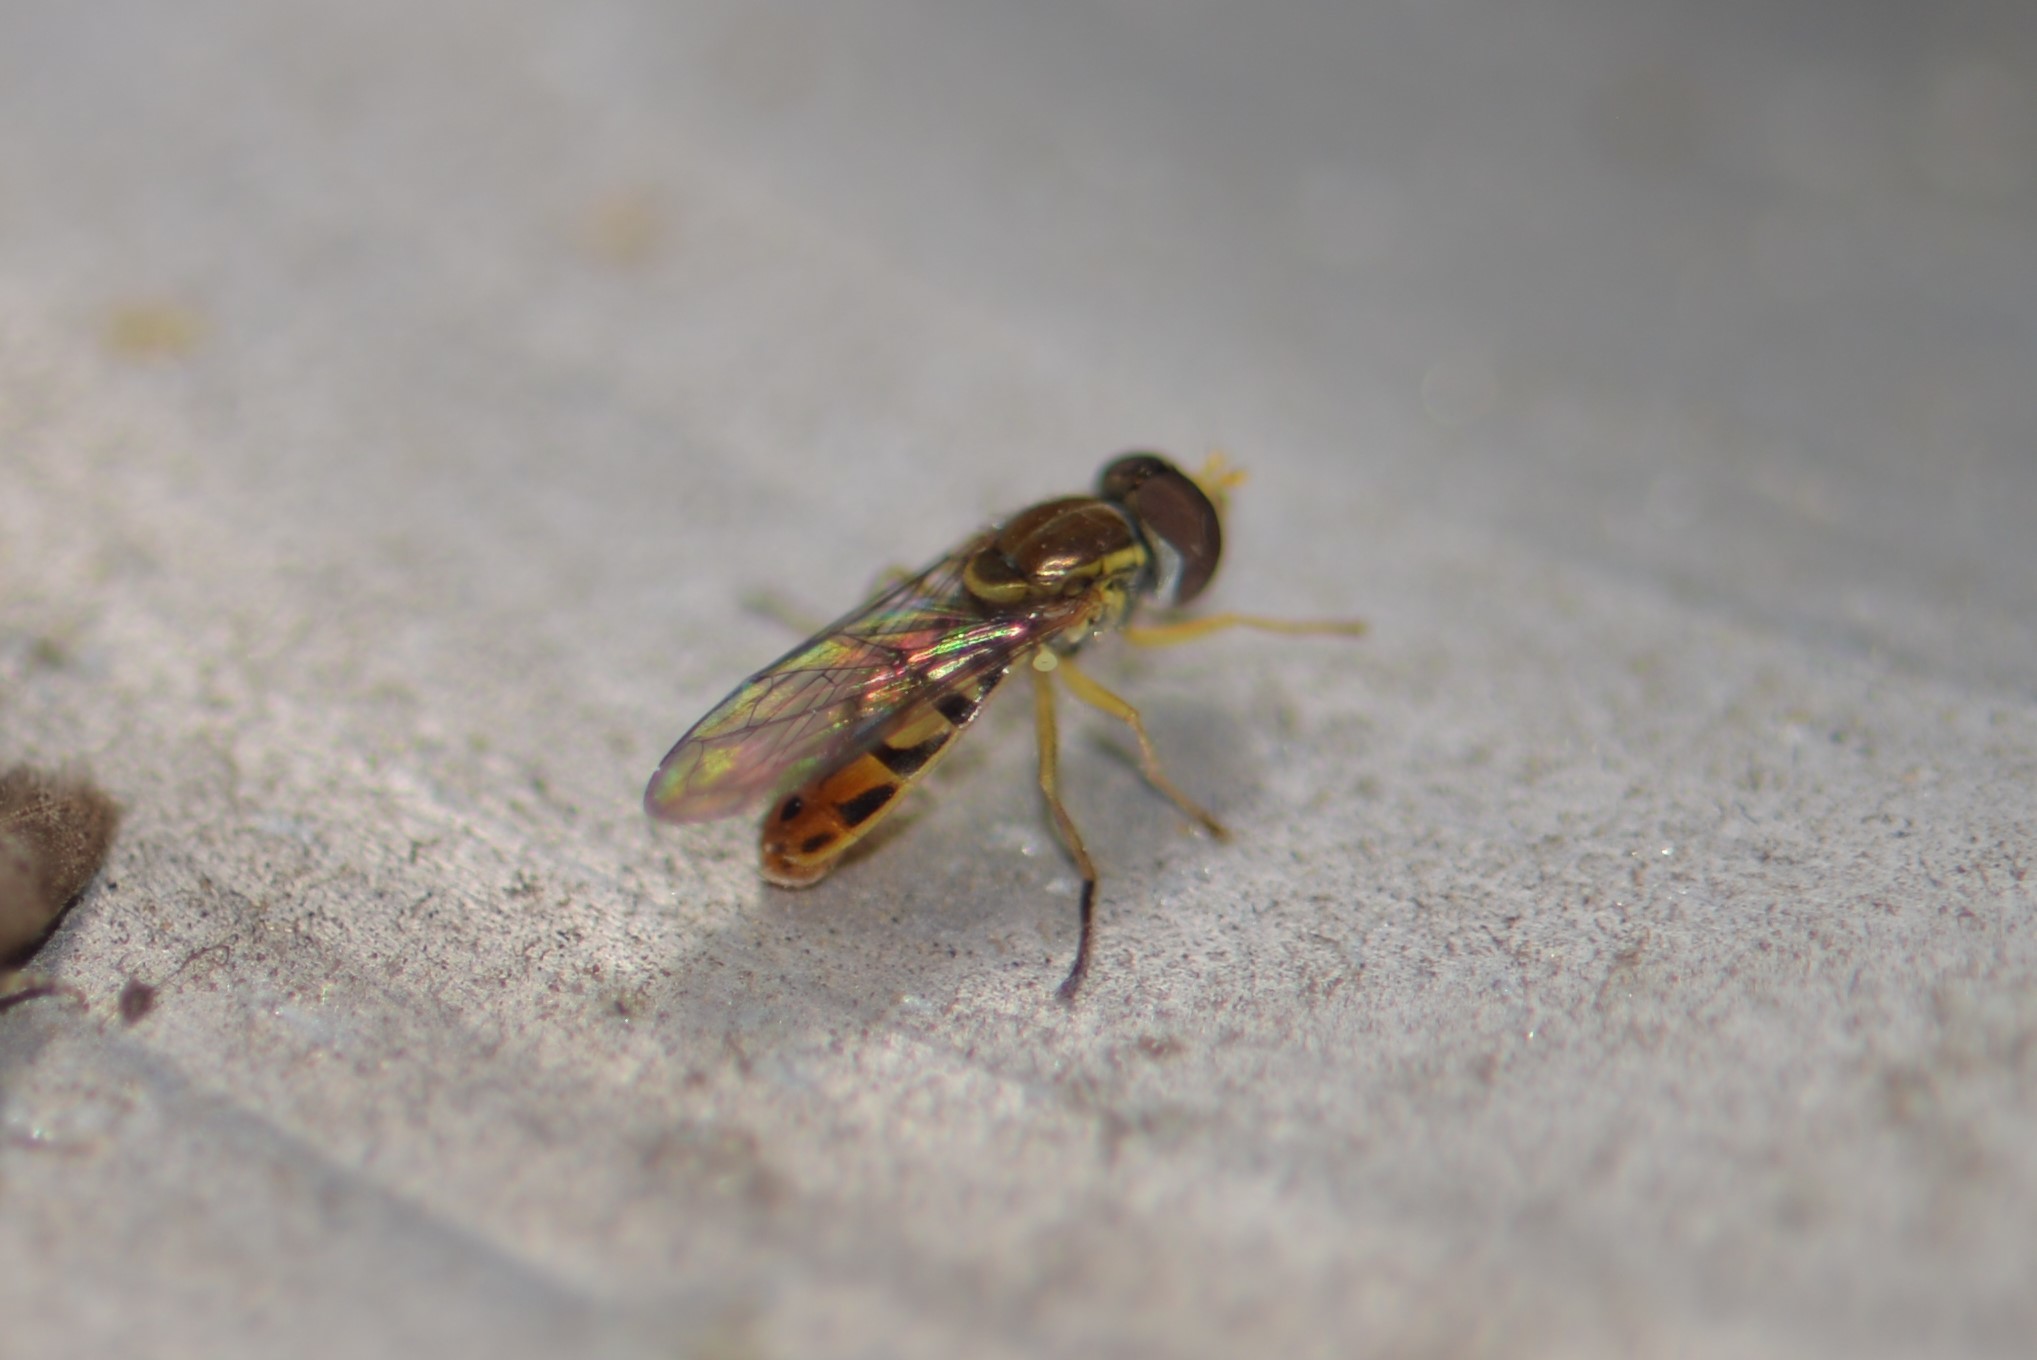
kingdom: Animalia
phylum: Arthropoda
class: Insecta
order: Diptera
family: Syrphidae
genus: Toxomerus
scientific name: Toxomerus marginatus
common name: Syrphid fly
